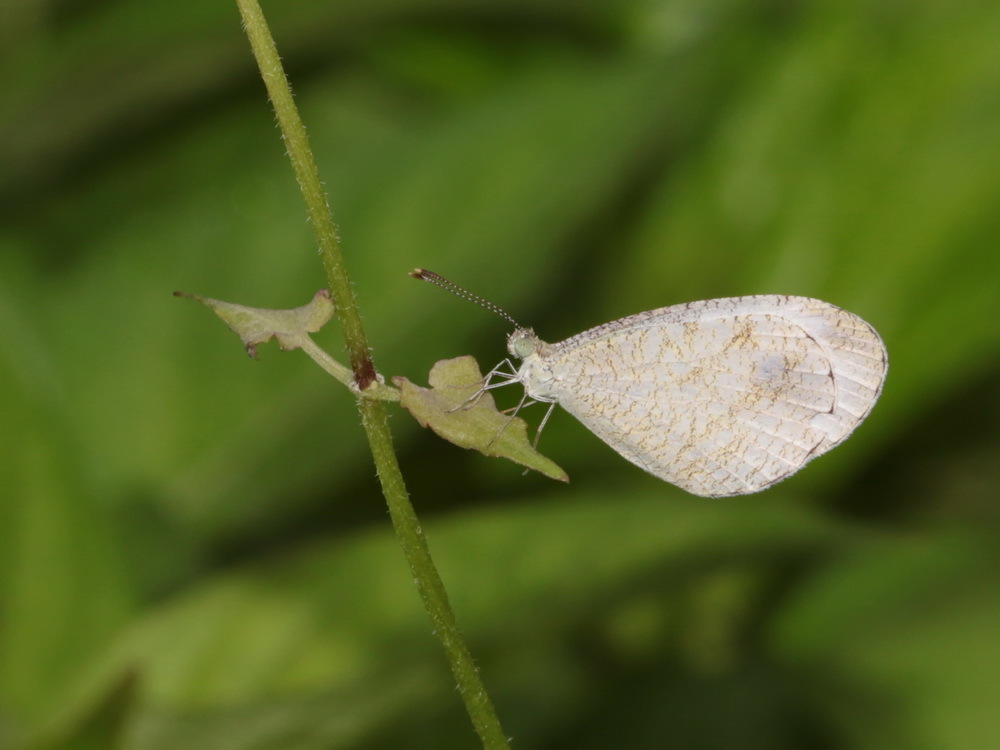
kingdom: Animalia
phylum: Arthropoda
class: Insecta
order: Lepidoptera
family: Pieridae
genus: Leptosia
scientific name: Leptosia nina
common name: Psyche
